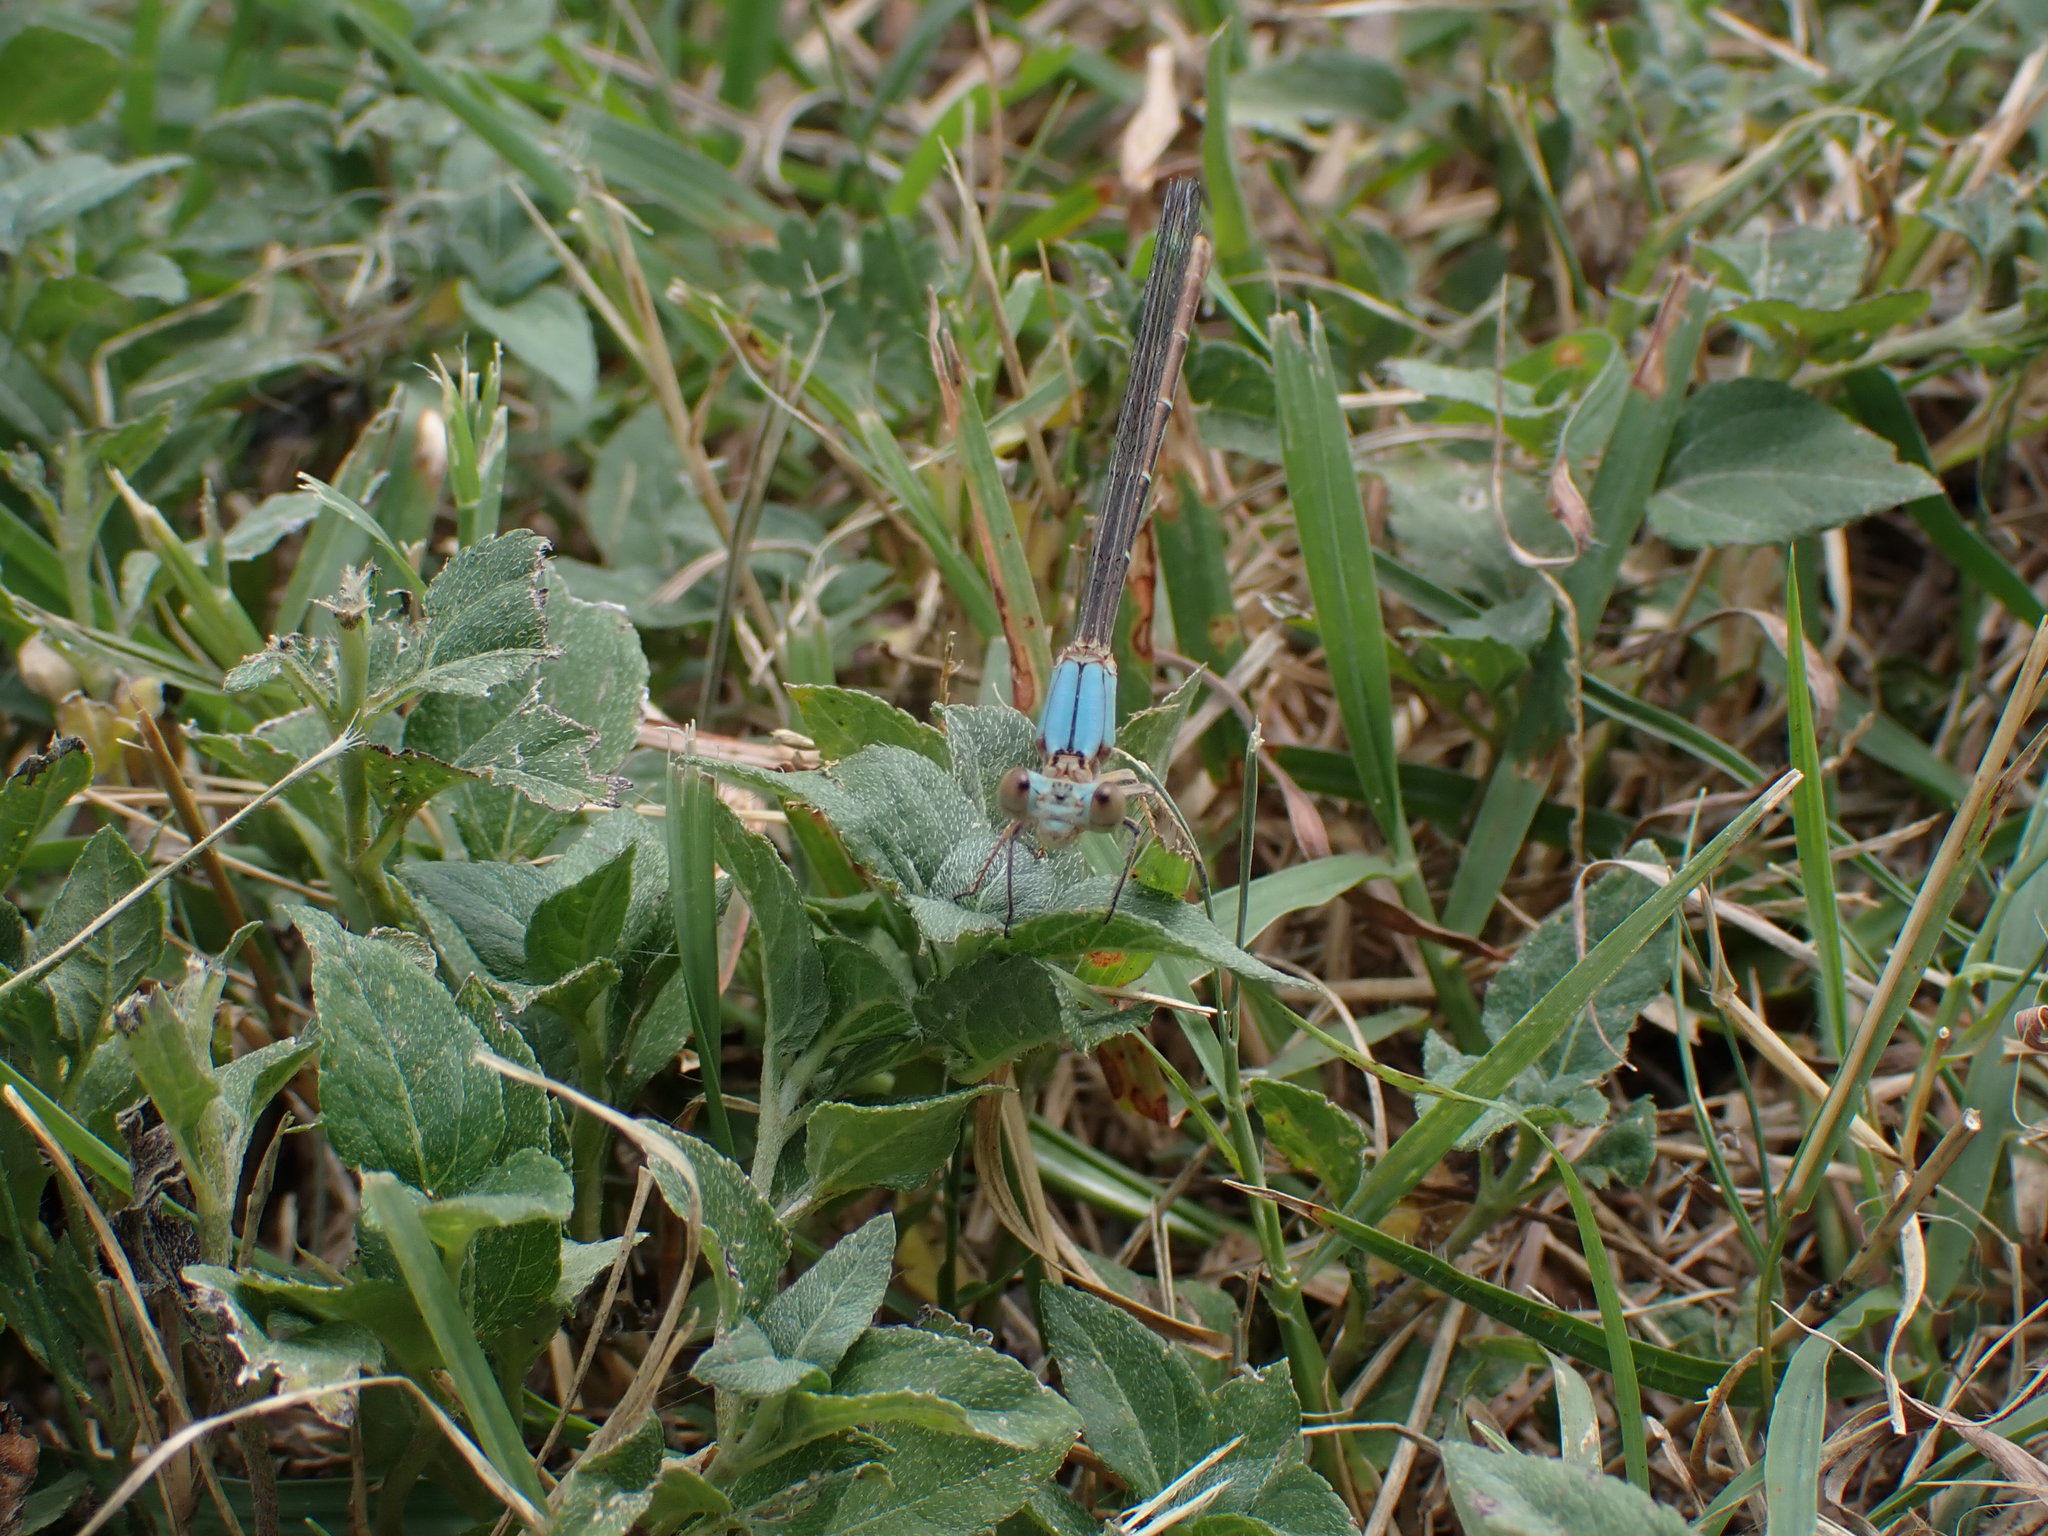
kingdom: Animalia
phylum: Arthropoda
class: Insecta
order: Odonata
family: Coenagrionidae
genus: Argia
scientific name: Argia apicalis
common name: Blue-fronted dancer
